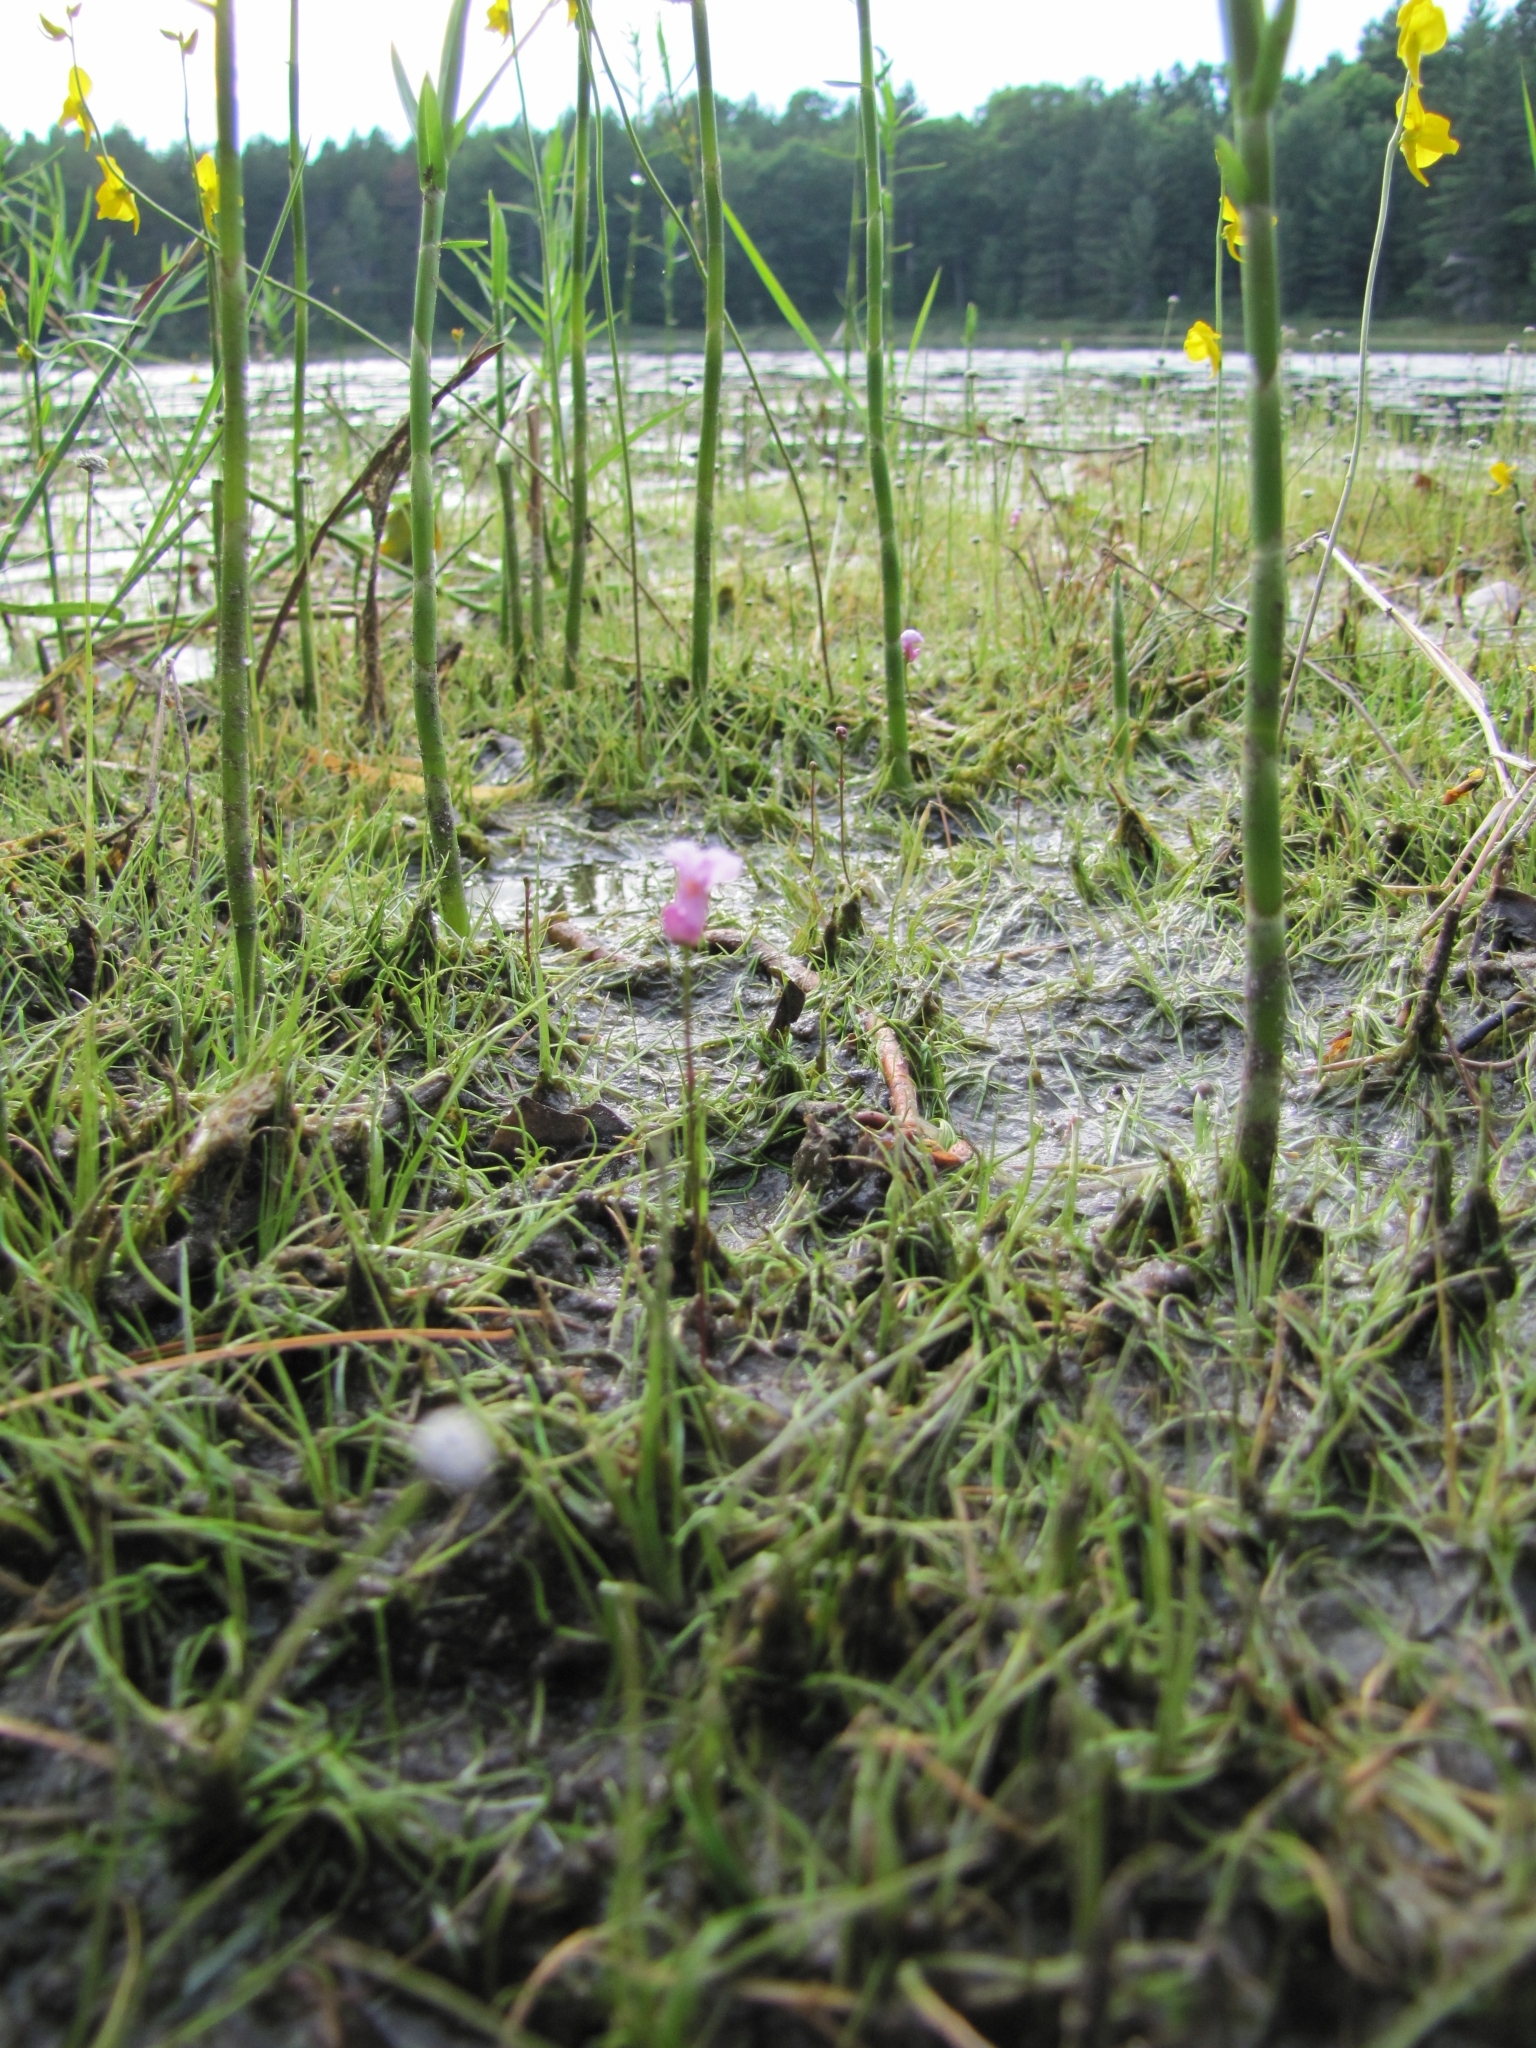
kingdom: Plantae
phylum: Tracheophyta
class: Magnoliopsida
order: Lamiales
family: Lentibulariaceae
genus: Utricularia
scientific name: Utricularia resupinata
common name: Northeastern bladderwort
